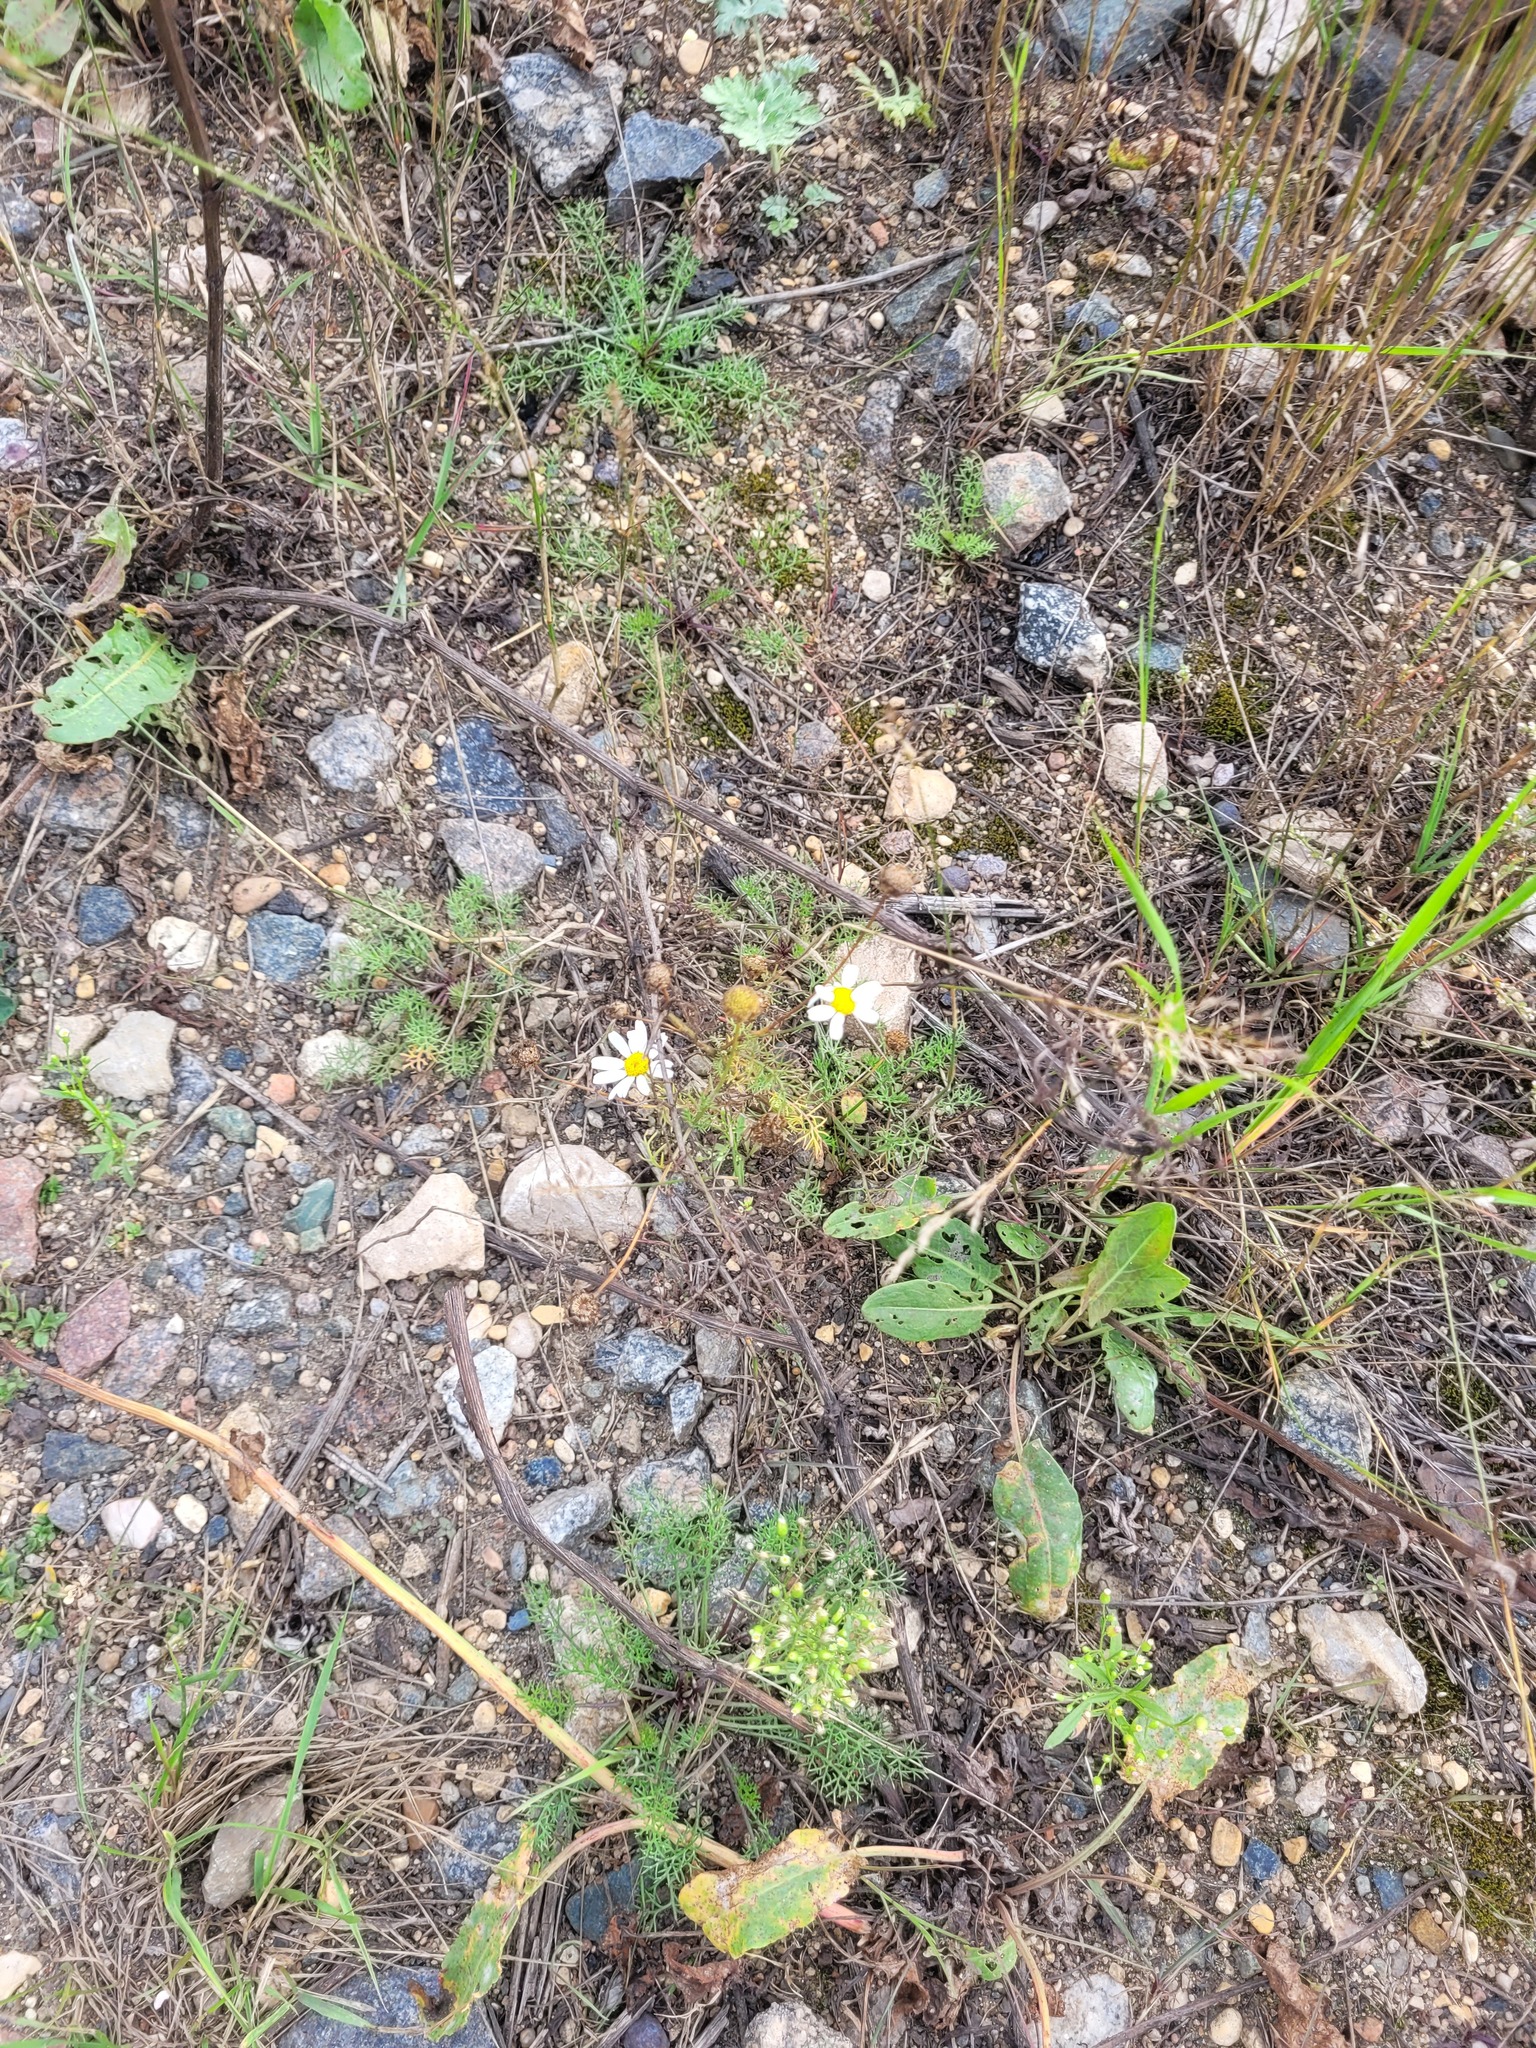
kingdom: Plantae
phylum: Tracheophyta
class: Magnoliopsida
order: Asterales
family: Asteraceae
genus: Tripleurospermum
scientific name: Tripleurospermum inodorum
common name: Scentless mayweed
